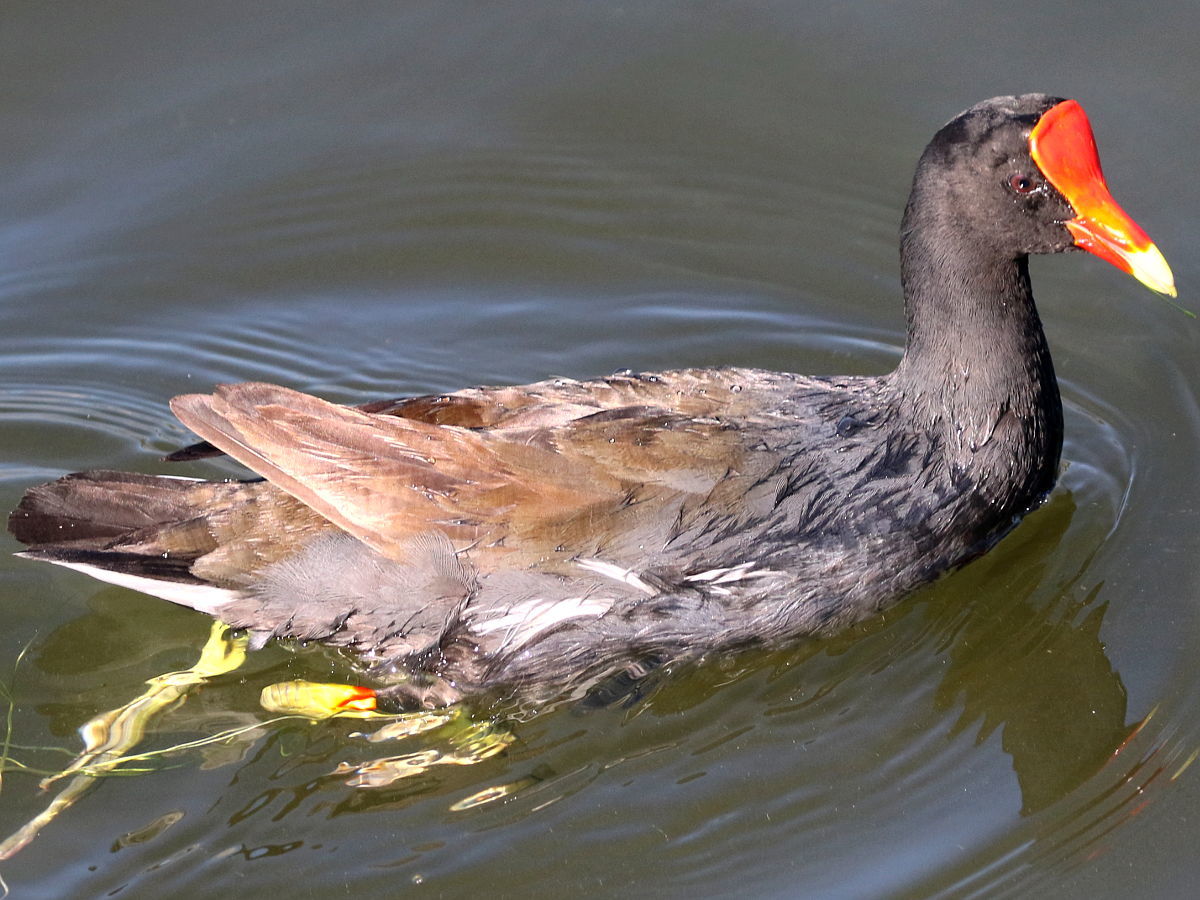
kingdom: Animalia
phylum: Chordata
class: Aves
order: Gruiformes
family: Rallidae
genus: Gallinula
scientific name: Gallinula chloropus
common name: Common moorhen
